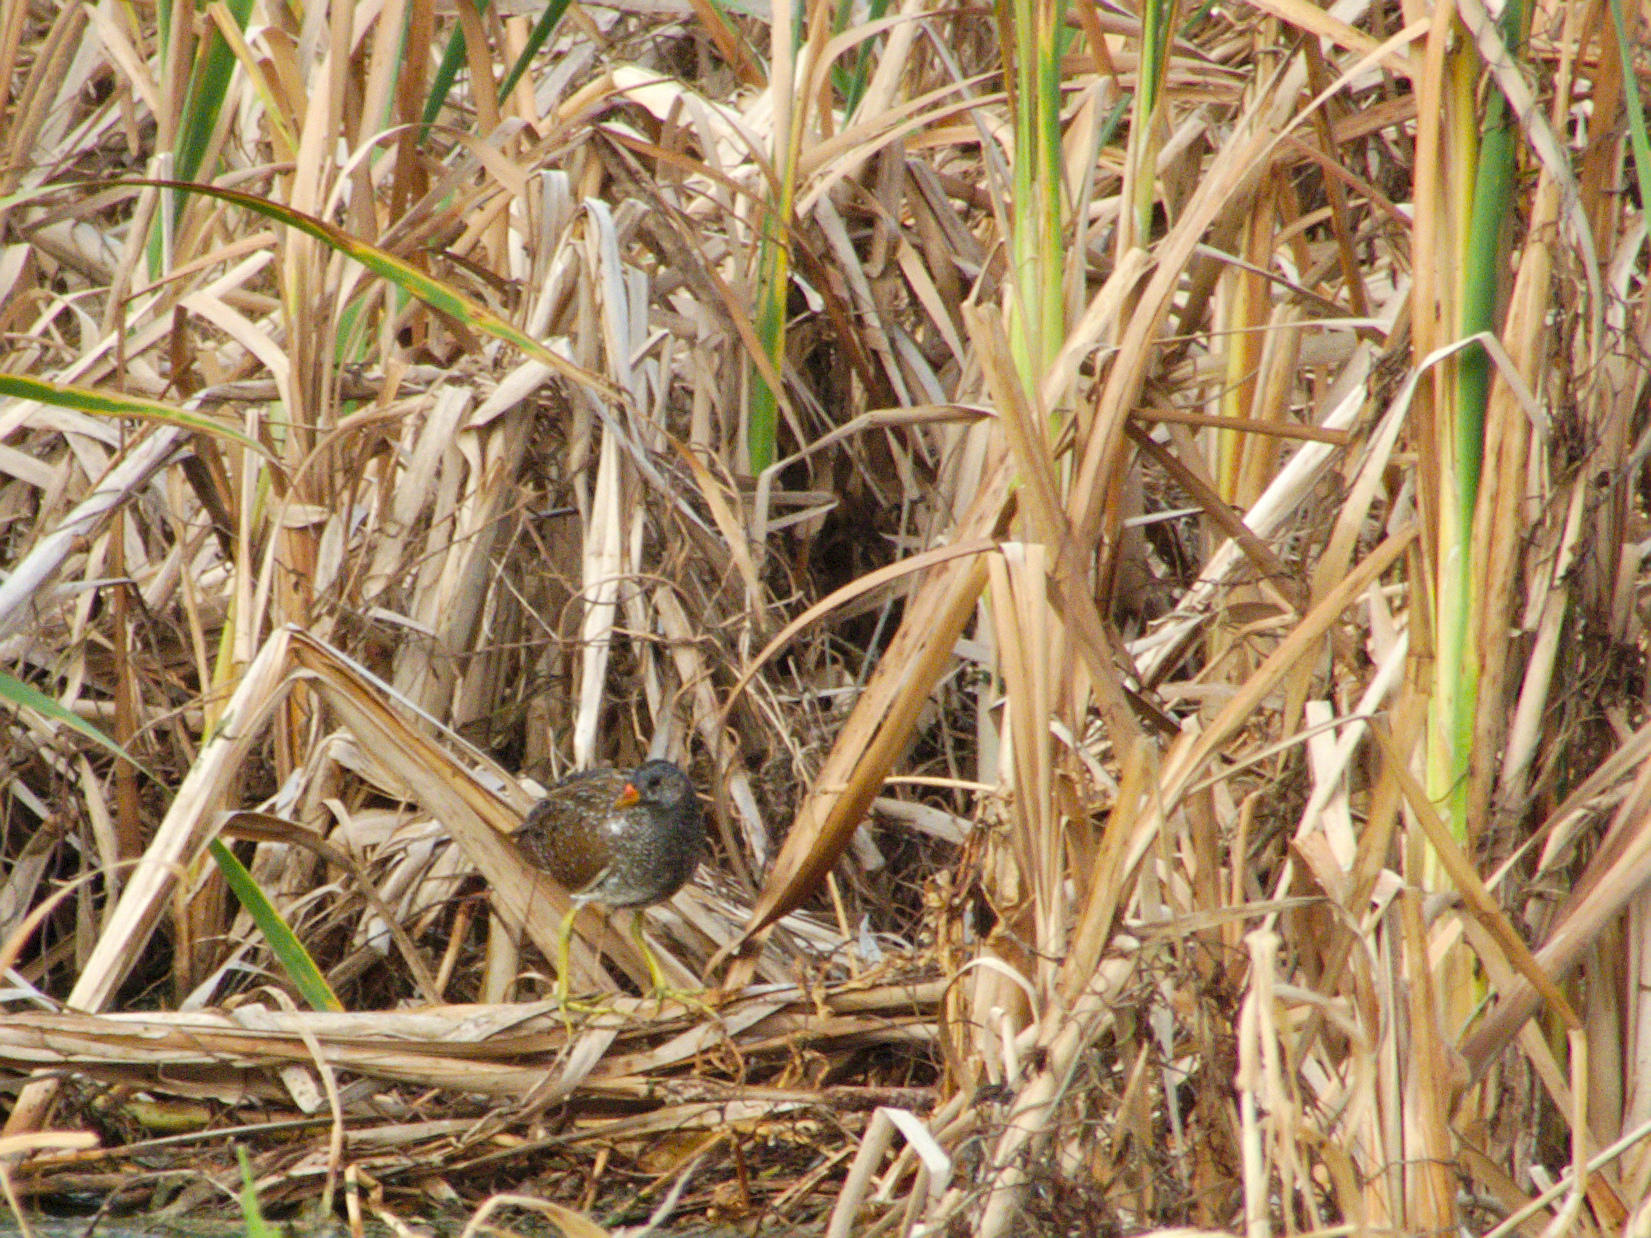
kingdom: Animalia
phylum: Chordata
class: Aves
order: Gruiformes
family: Rallidae
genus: Porzana
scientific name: Porzana porzana
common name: Spotted crake
